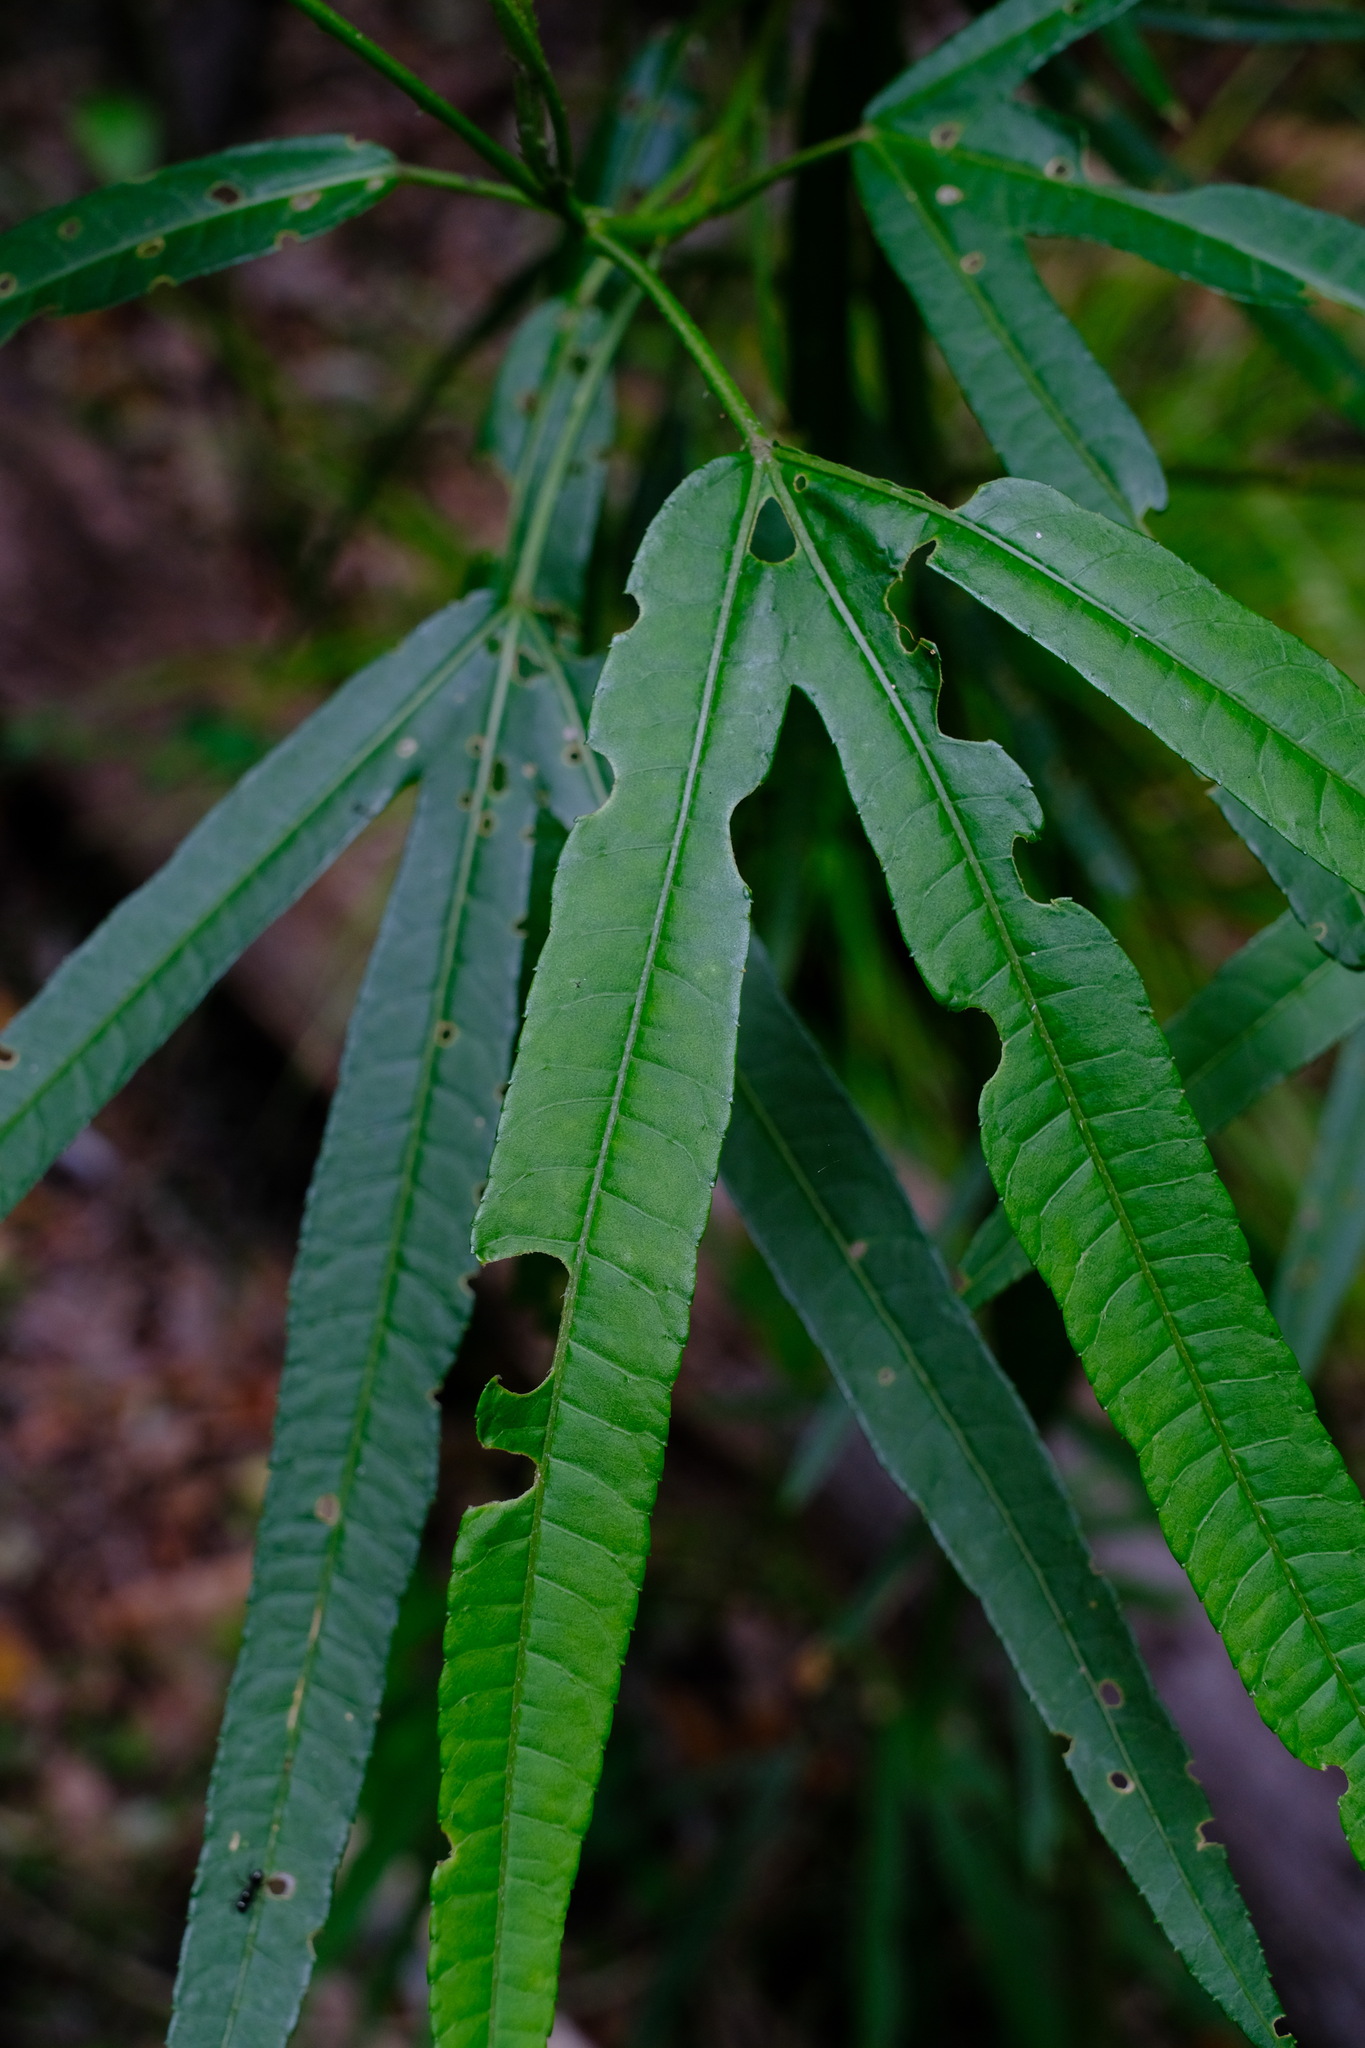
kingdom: Plantae
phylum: Tracheophyta
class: Magnoliopsida
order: Malvales
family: Malvaceae
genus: Hibiscus
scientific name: Hibiscus heterophyllus
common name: Queensland-sorrel
